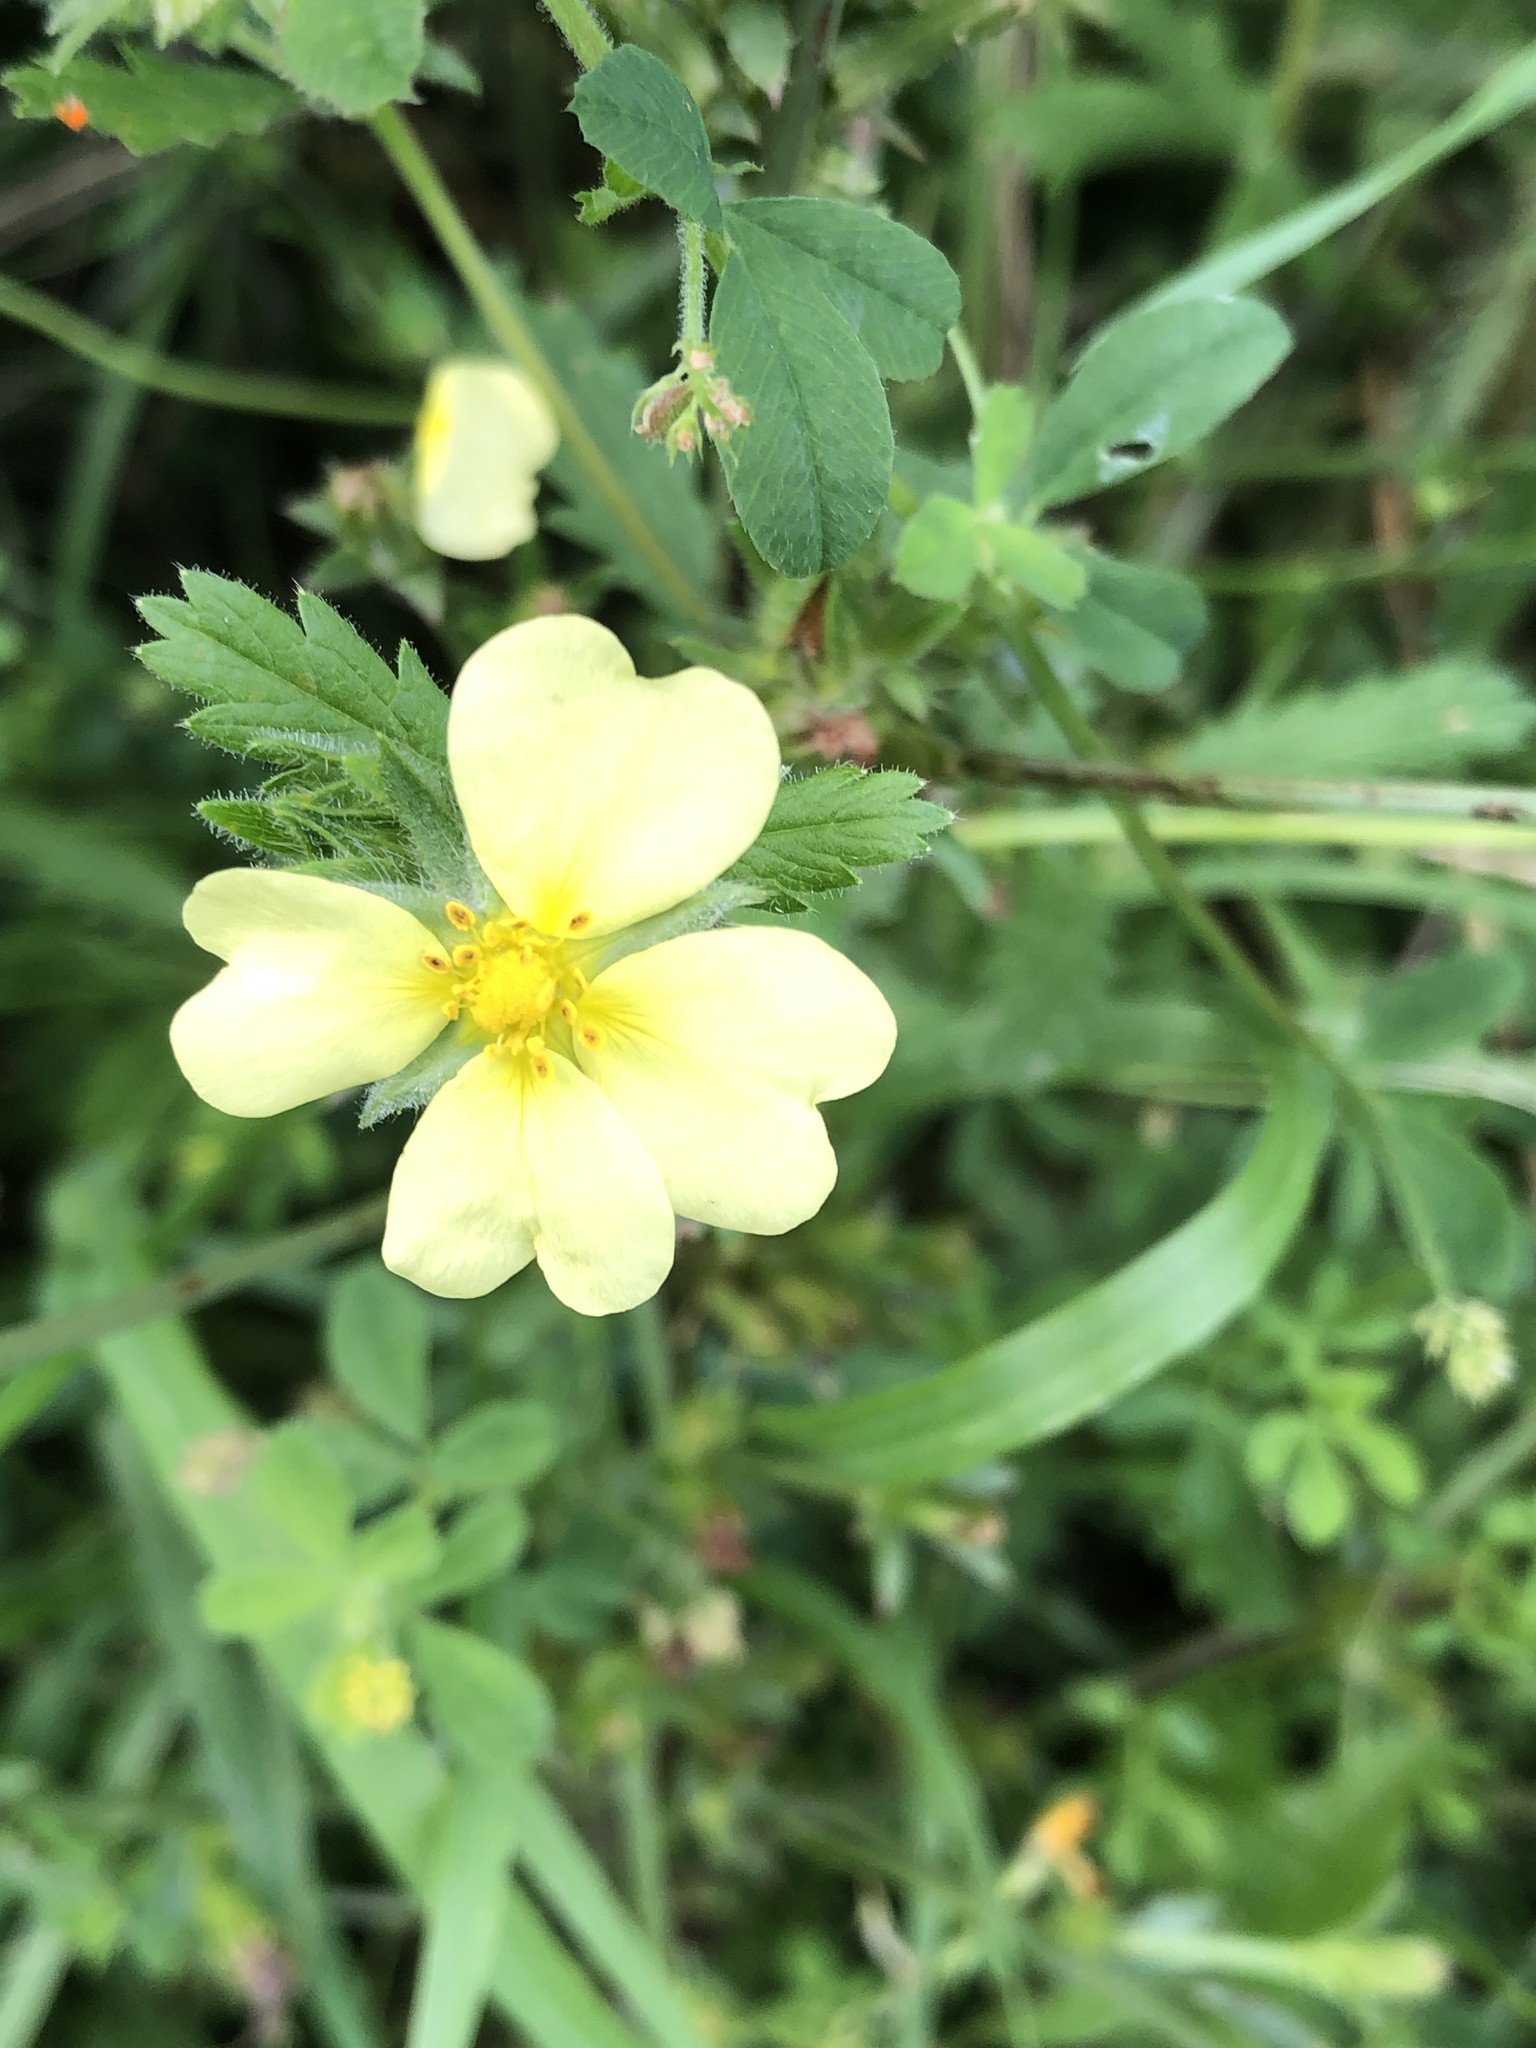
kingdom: Plantae
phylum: Tracheophyta
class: Magnoliopsida
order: Rosales
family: Rosaceae
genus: Potentilla
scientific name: Potentilla recta
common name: Sulphur cinquefoil
